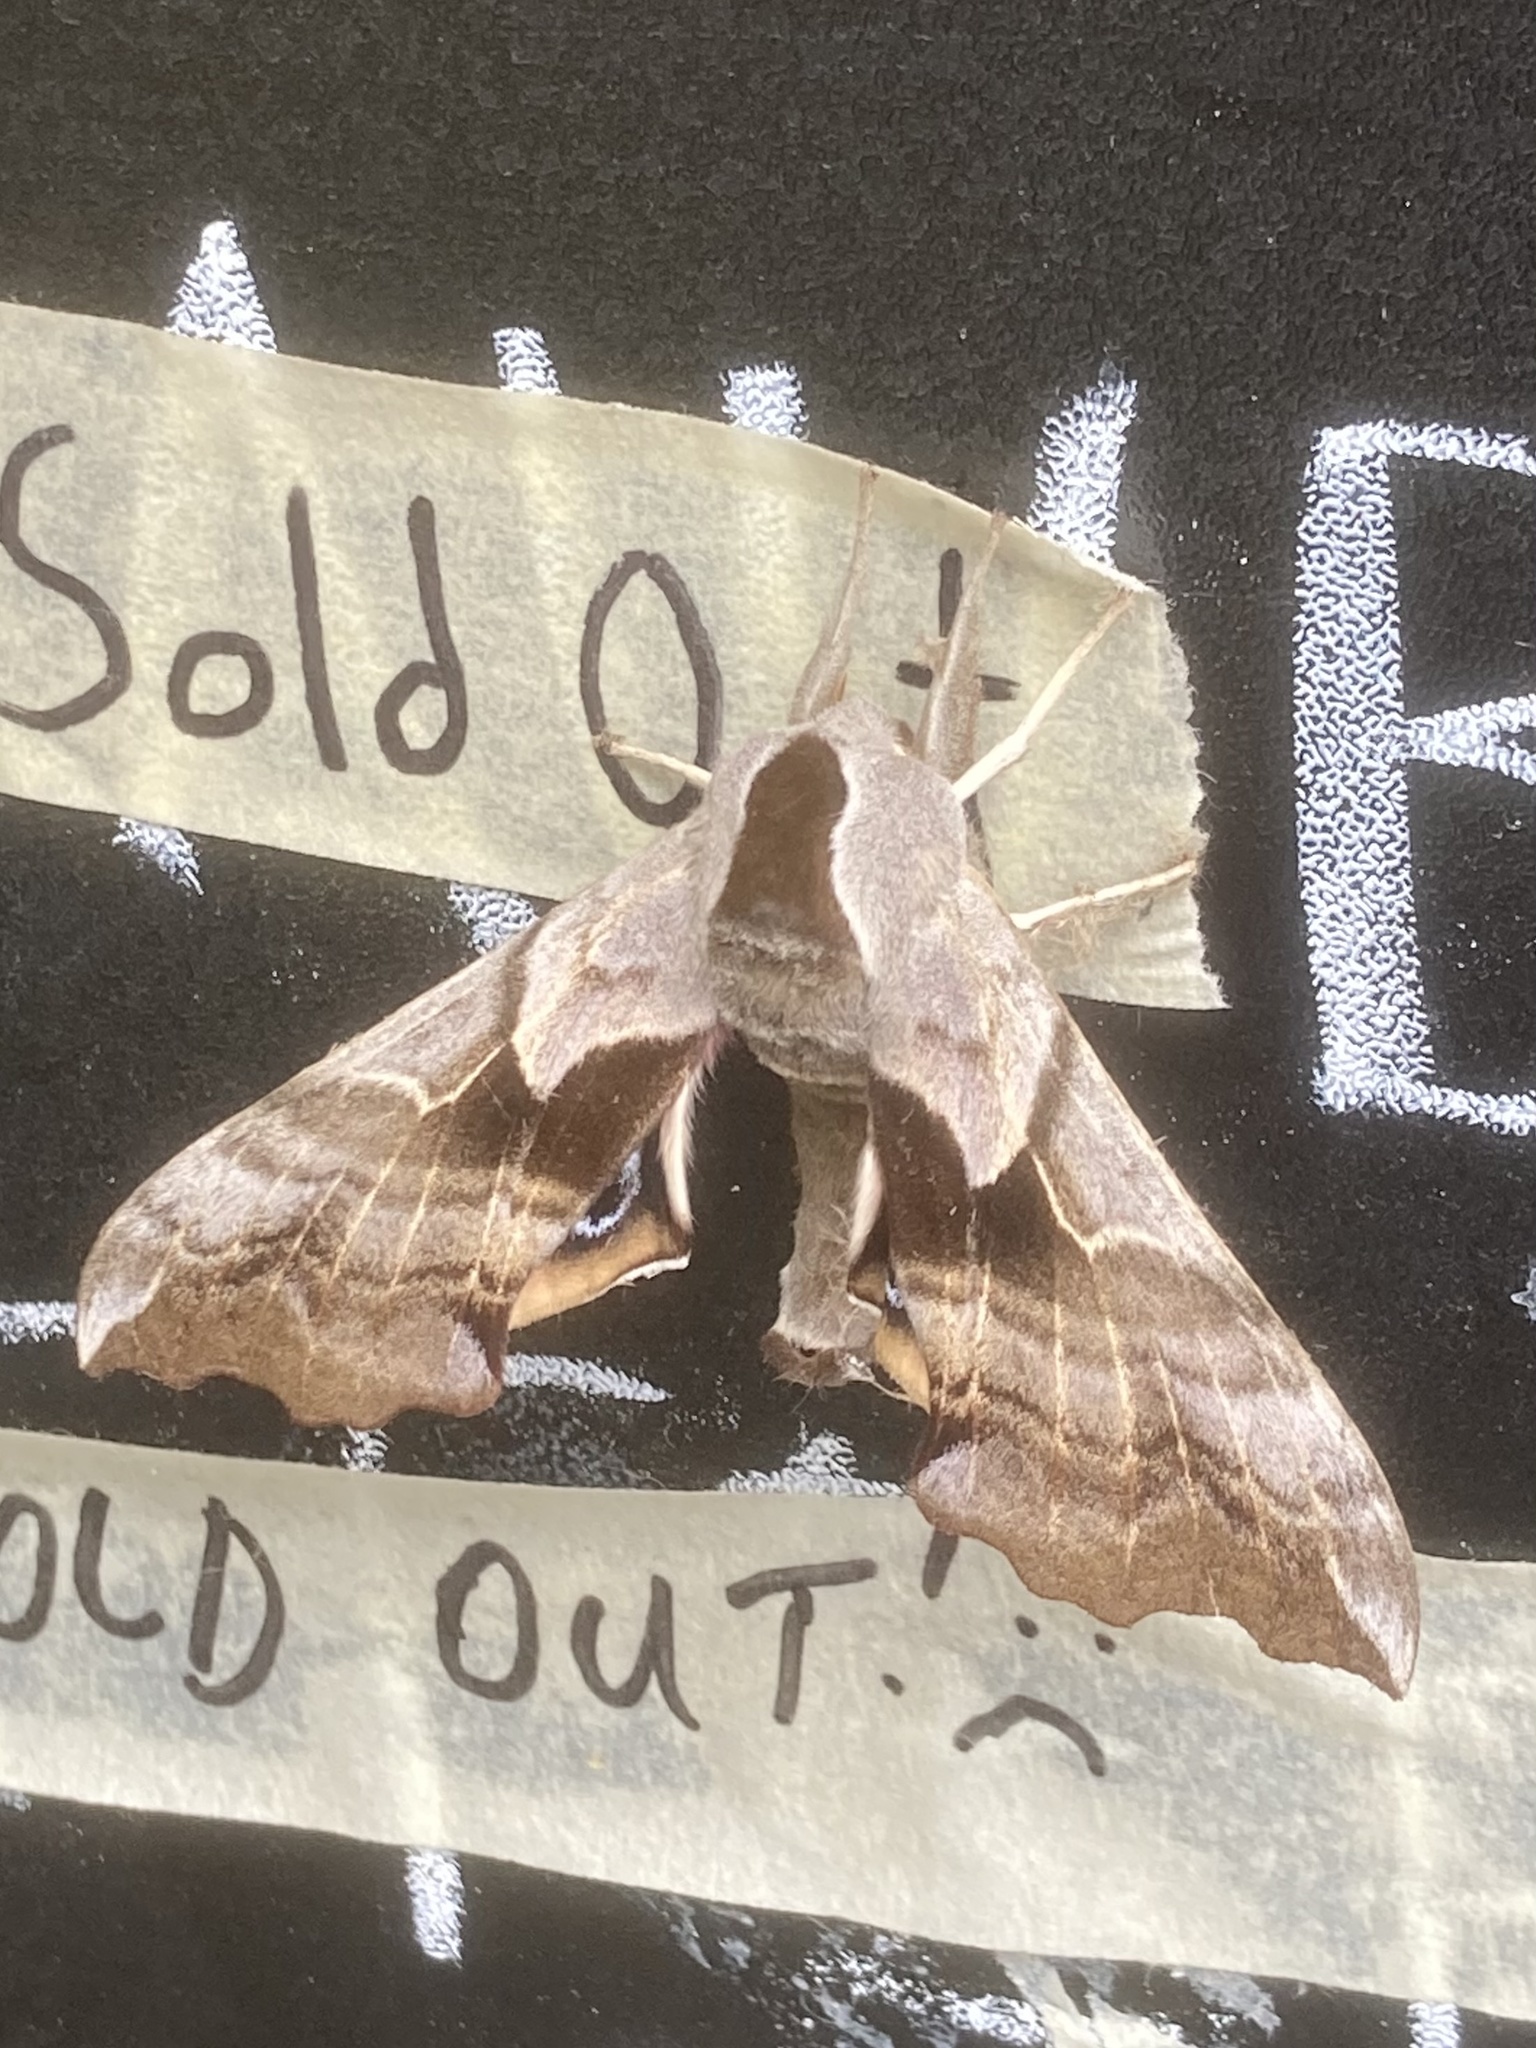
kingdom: Animalia
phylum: Arthropoda
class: Insecta
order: Lepidoptera
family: Sphingidae
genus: Smerinthus
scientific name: Smerinthus cerisyi
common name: Cerisy's sphinx moth
